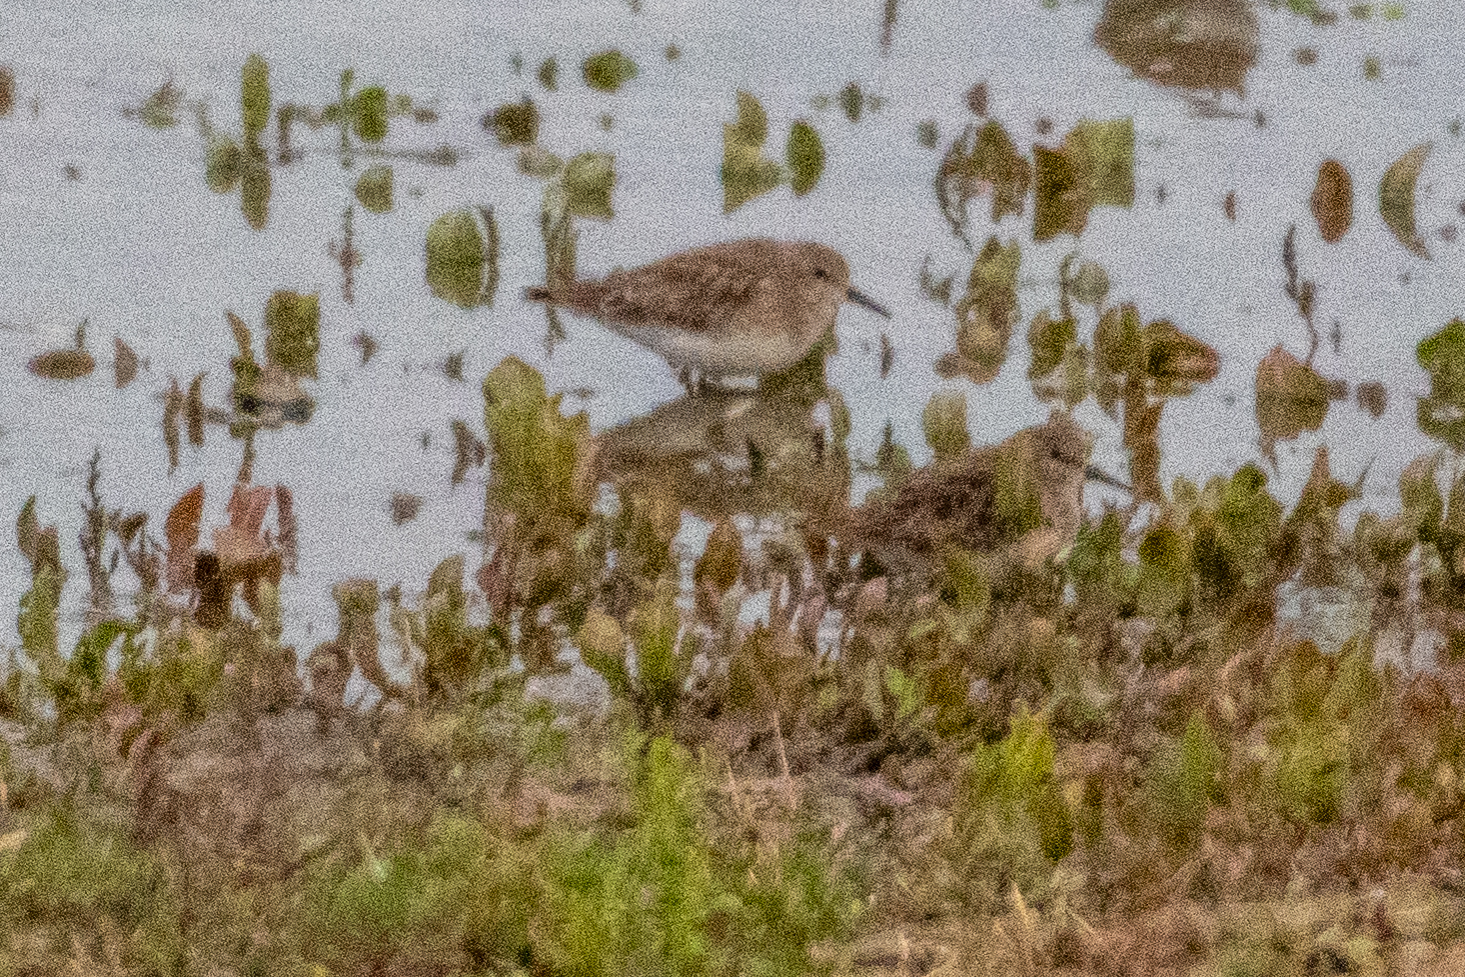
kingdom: Animalia
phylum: Chordata
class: Aves
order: Charadriiformes
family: Scolopacidae
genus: Calidris
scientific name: Calidris minutilla
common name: Least sandpiper
